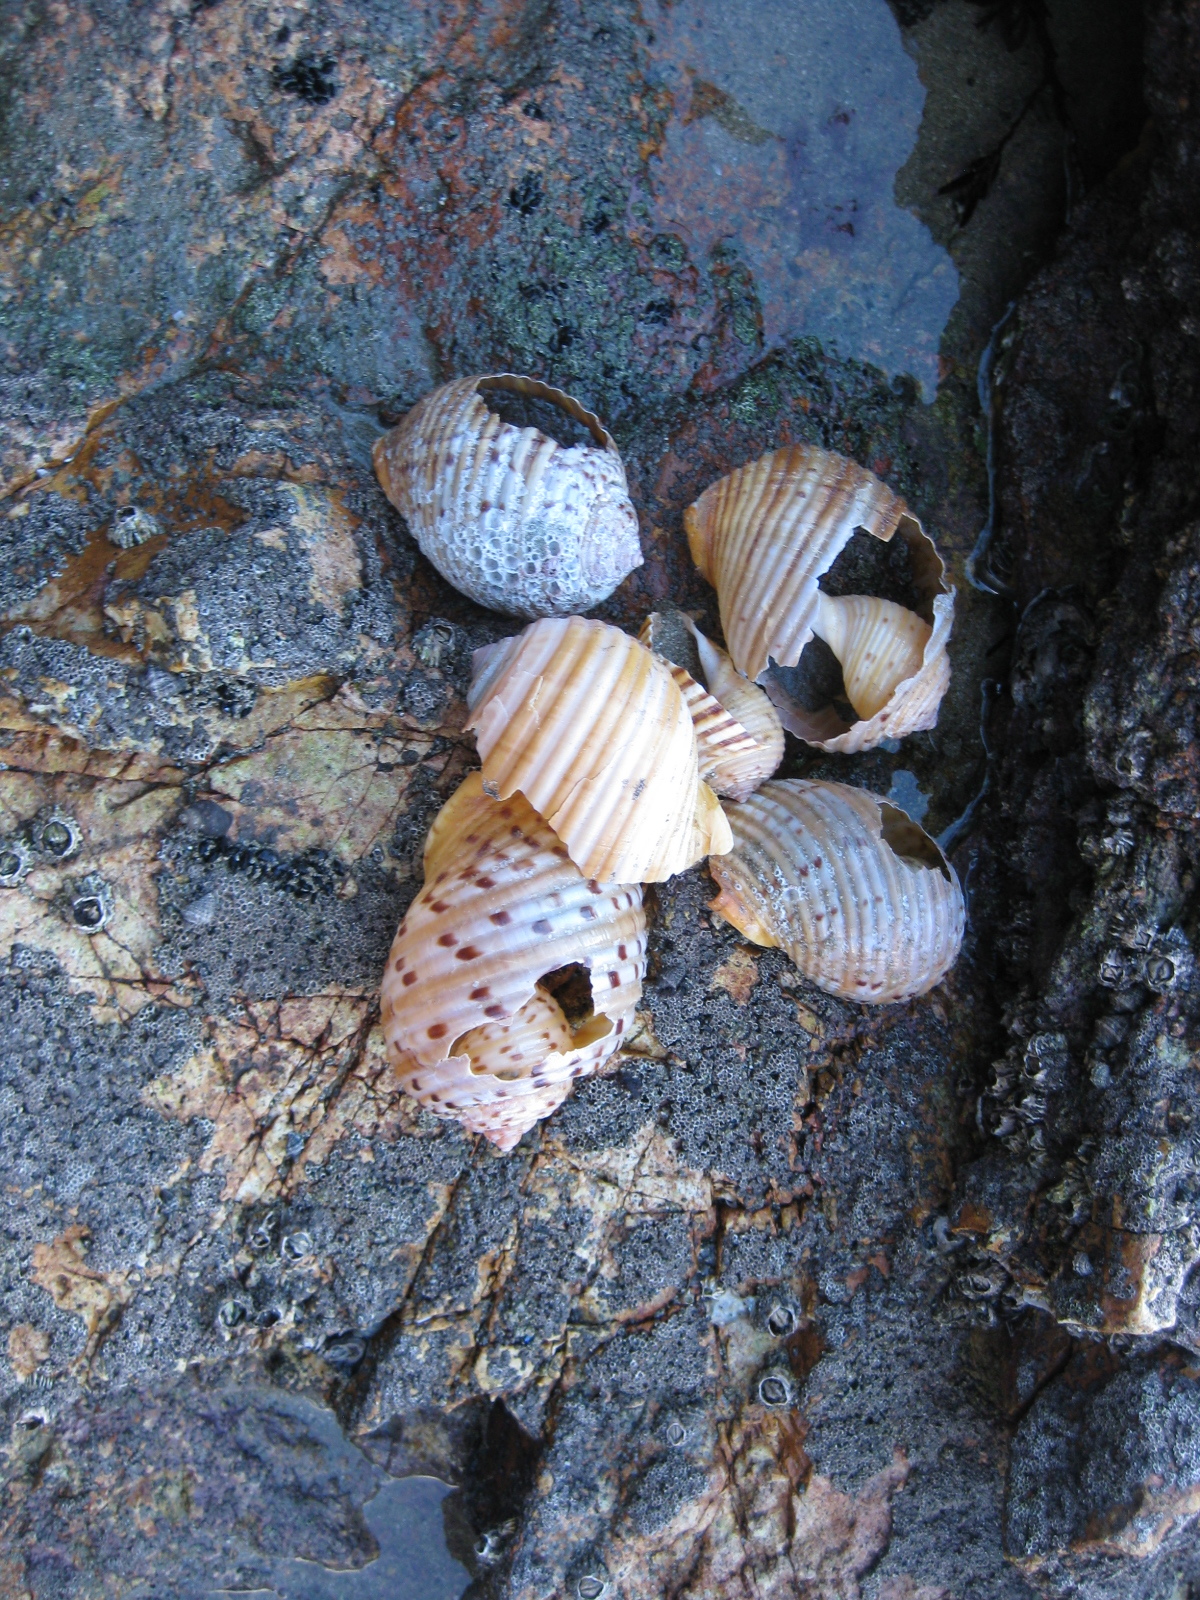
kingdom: Animalia
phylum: Mollusca
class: Gastropoda
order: Littorinimorpha
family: Tonnidae
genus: Tonna
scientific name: Tonna tankervillii
